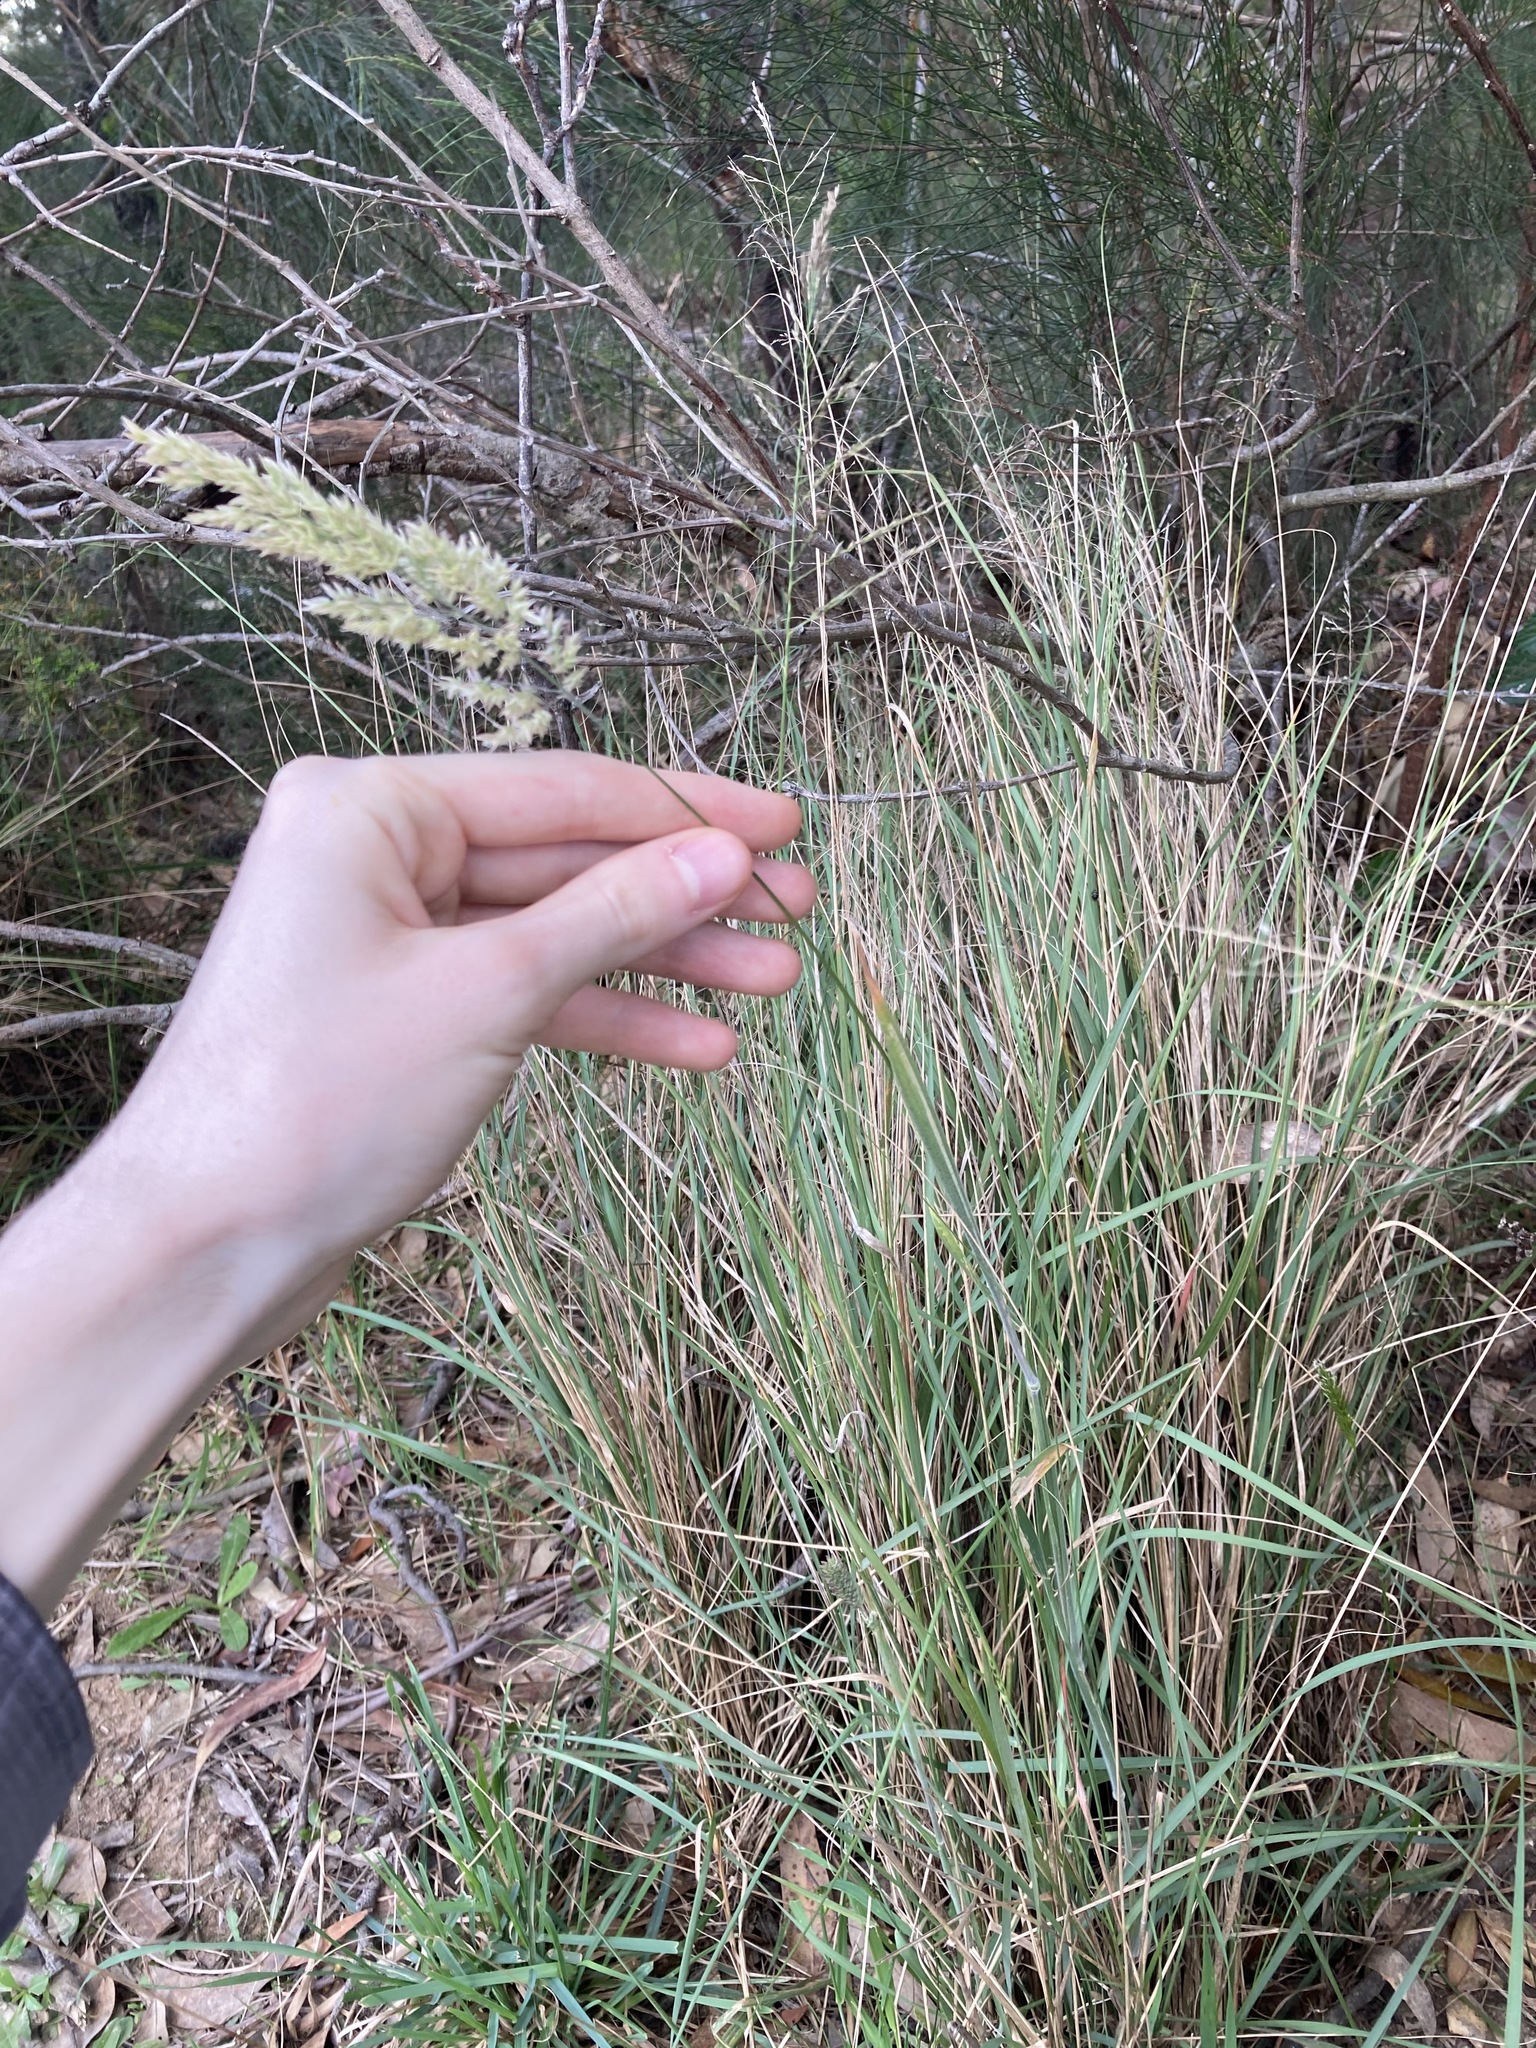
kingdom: Plantae
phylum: Tracheophyta
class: Liliopsida
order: Poales
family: Poaceae
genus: Holcus
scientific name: Holcus lanatus
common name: Yorkshire-fog
